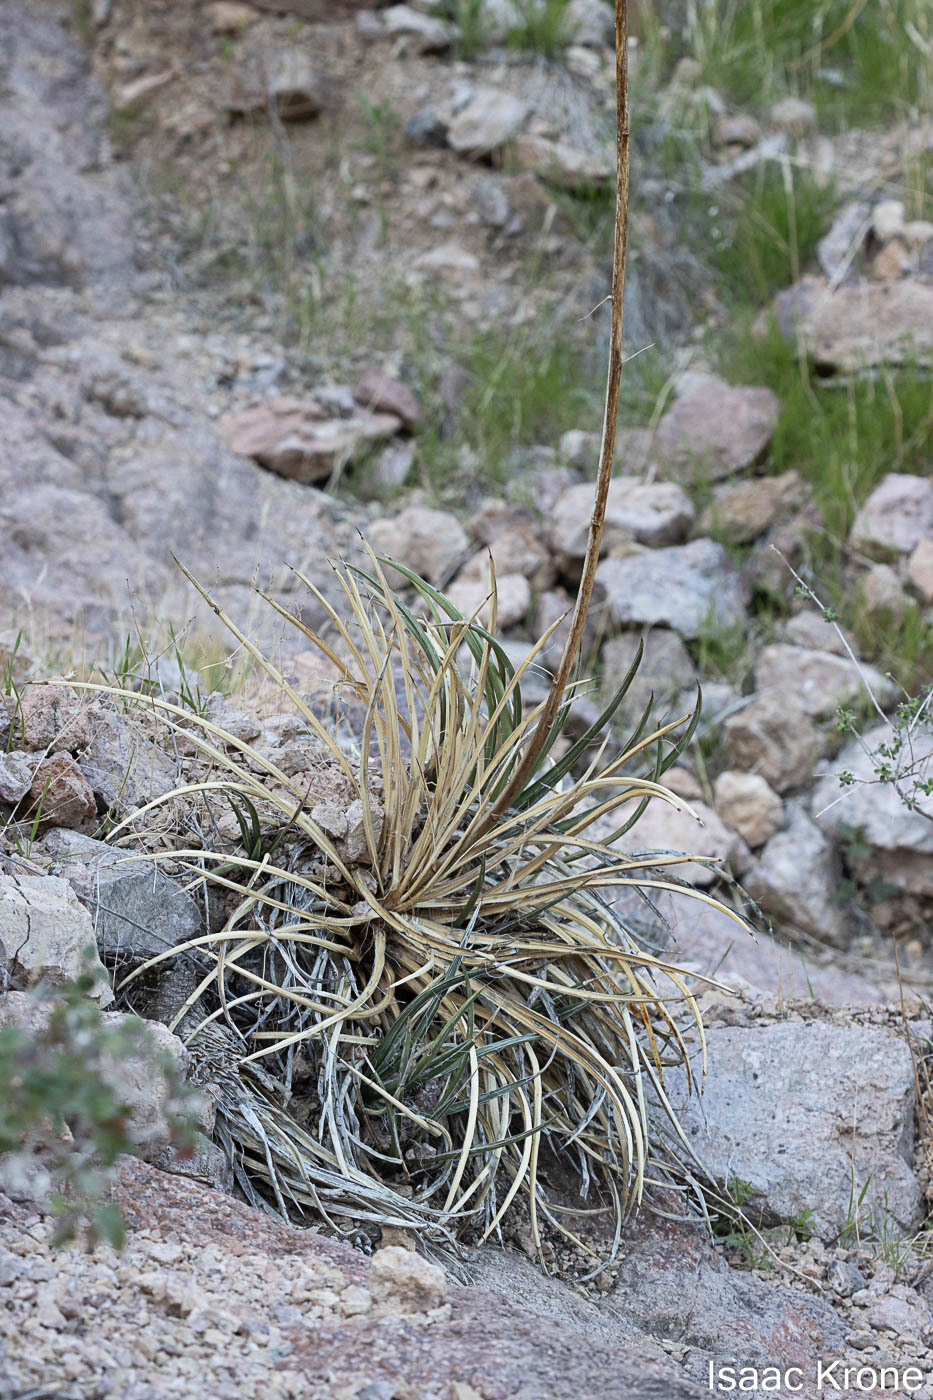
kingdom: Plantae
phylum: Tracheophyta
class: Liliopsida
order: Asparagales
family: Asparagaceae
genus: Agave
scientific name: Agave schottii
